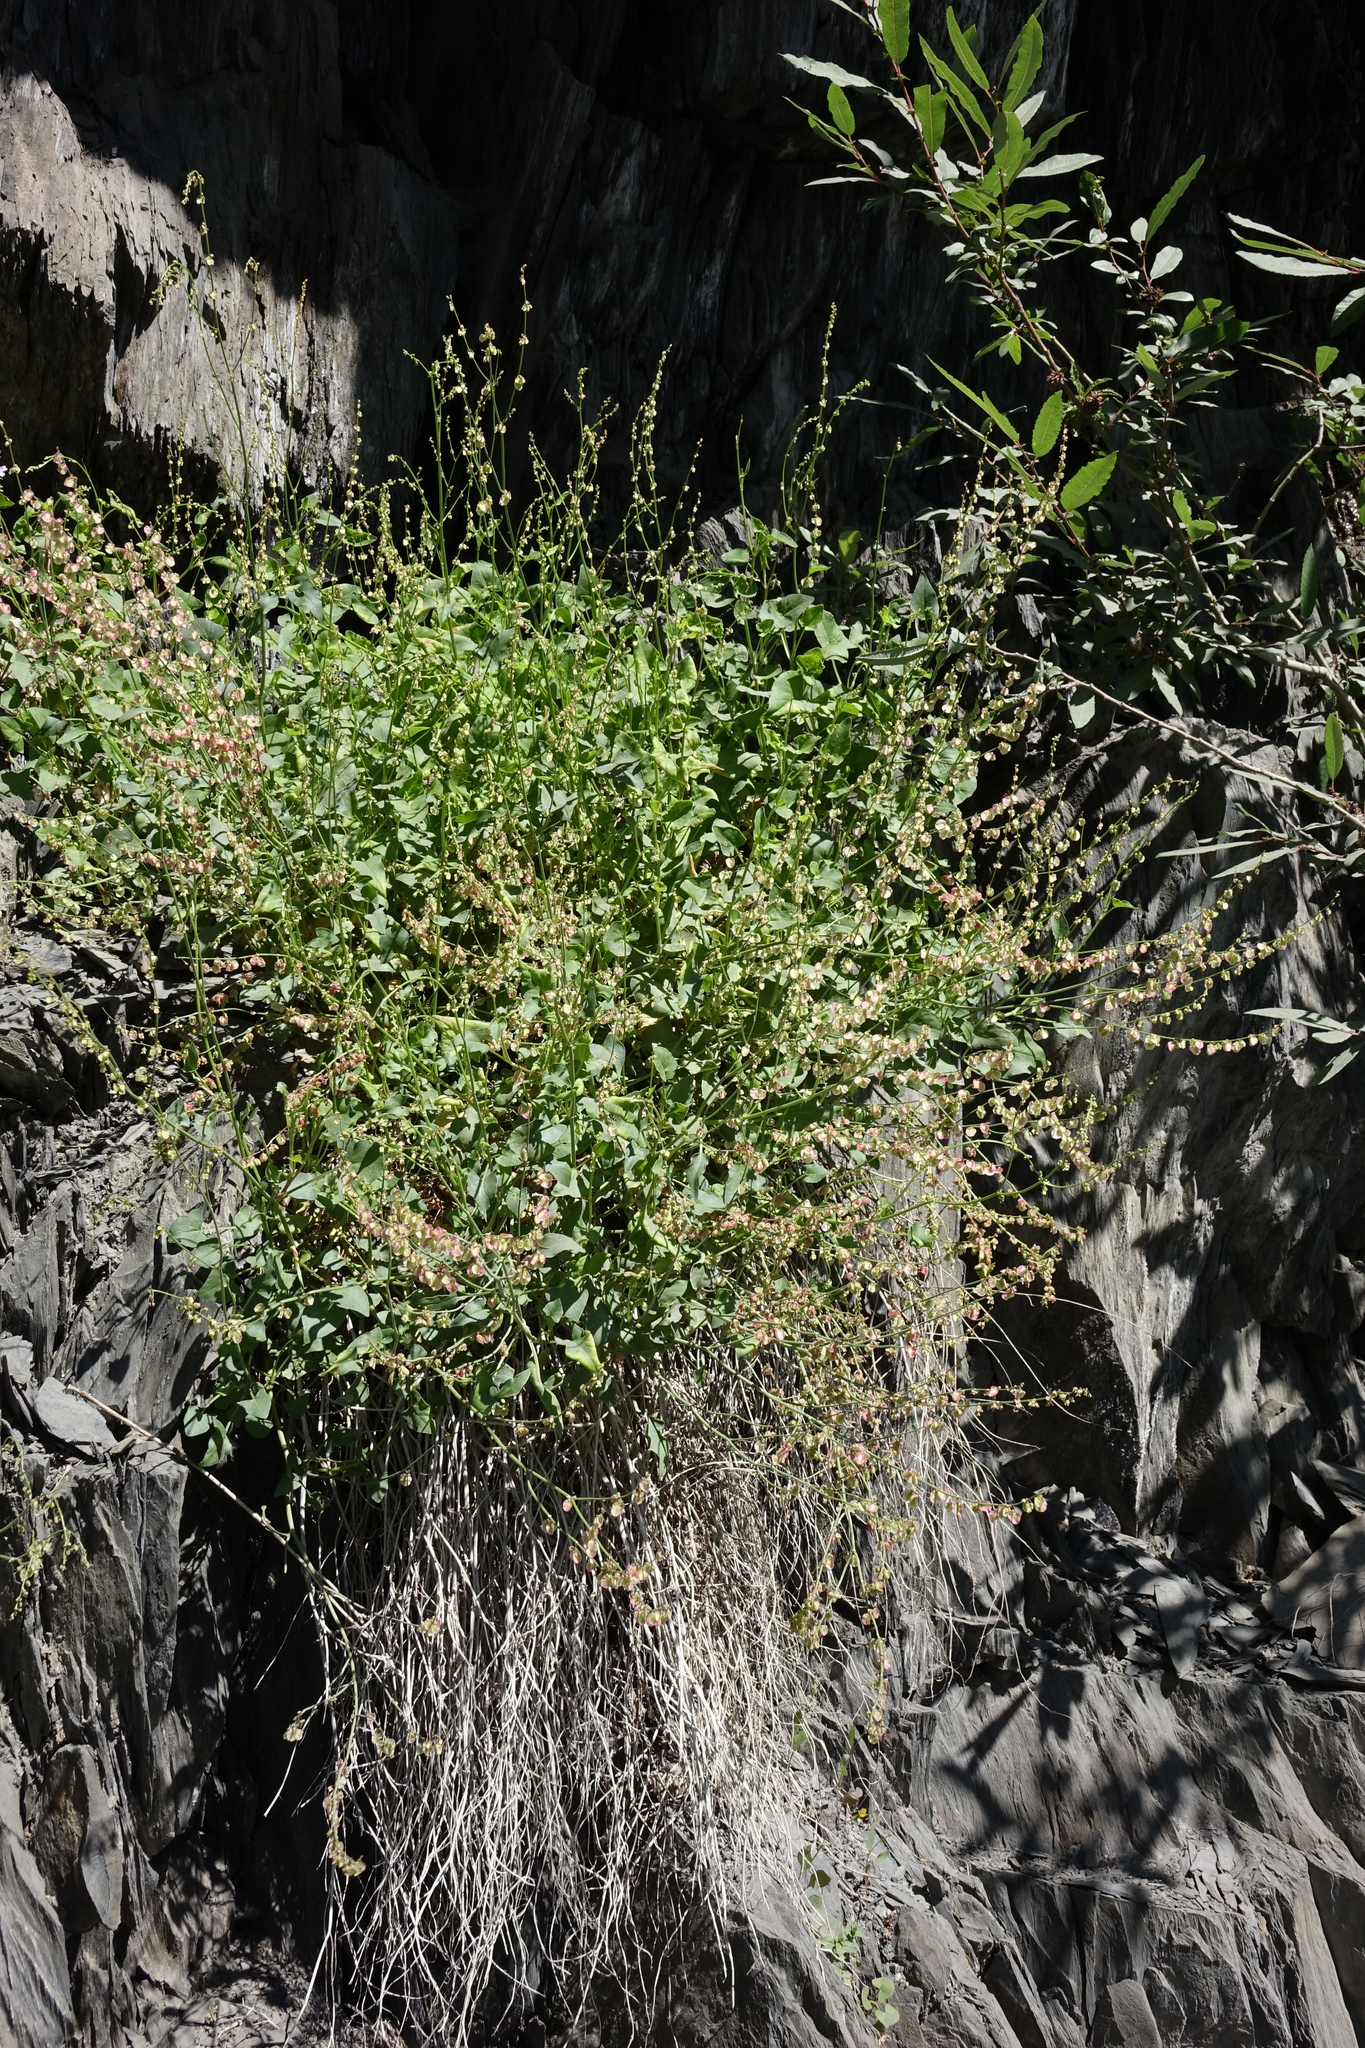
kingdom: Plantae
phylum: Tracheophyta
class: Magnoliopsida
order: Caryophyllales
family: Polygonaceae
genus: Rumex
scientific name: Rumex scutatus
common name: French sorrel
